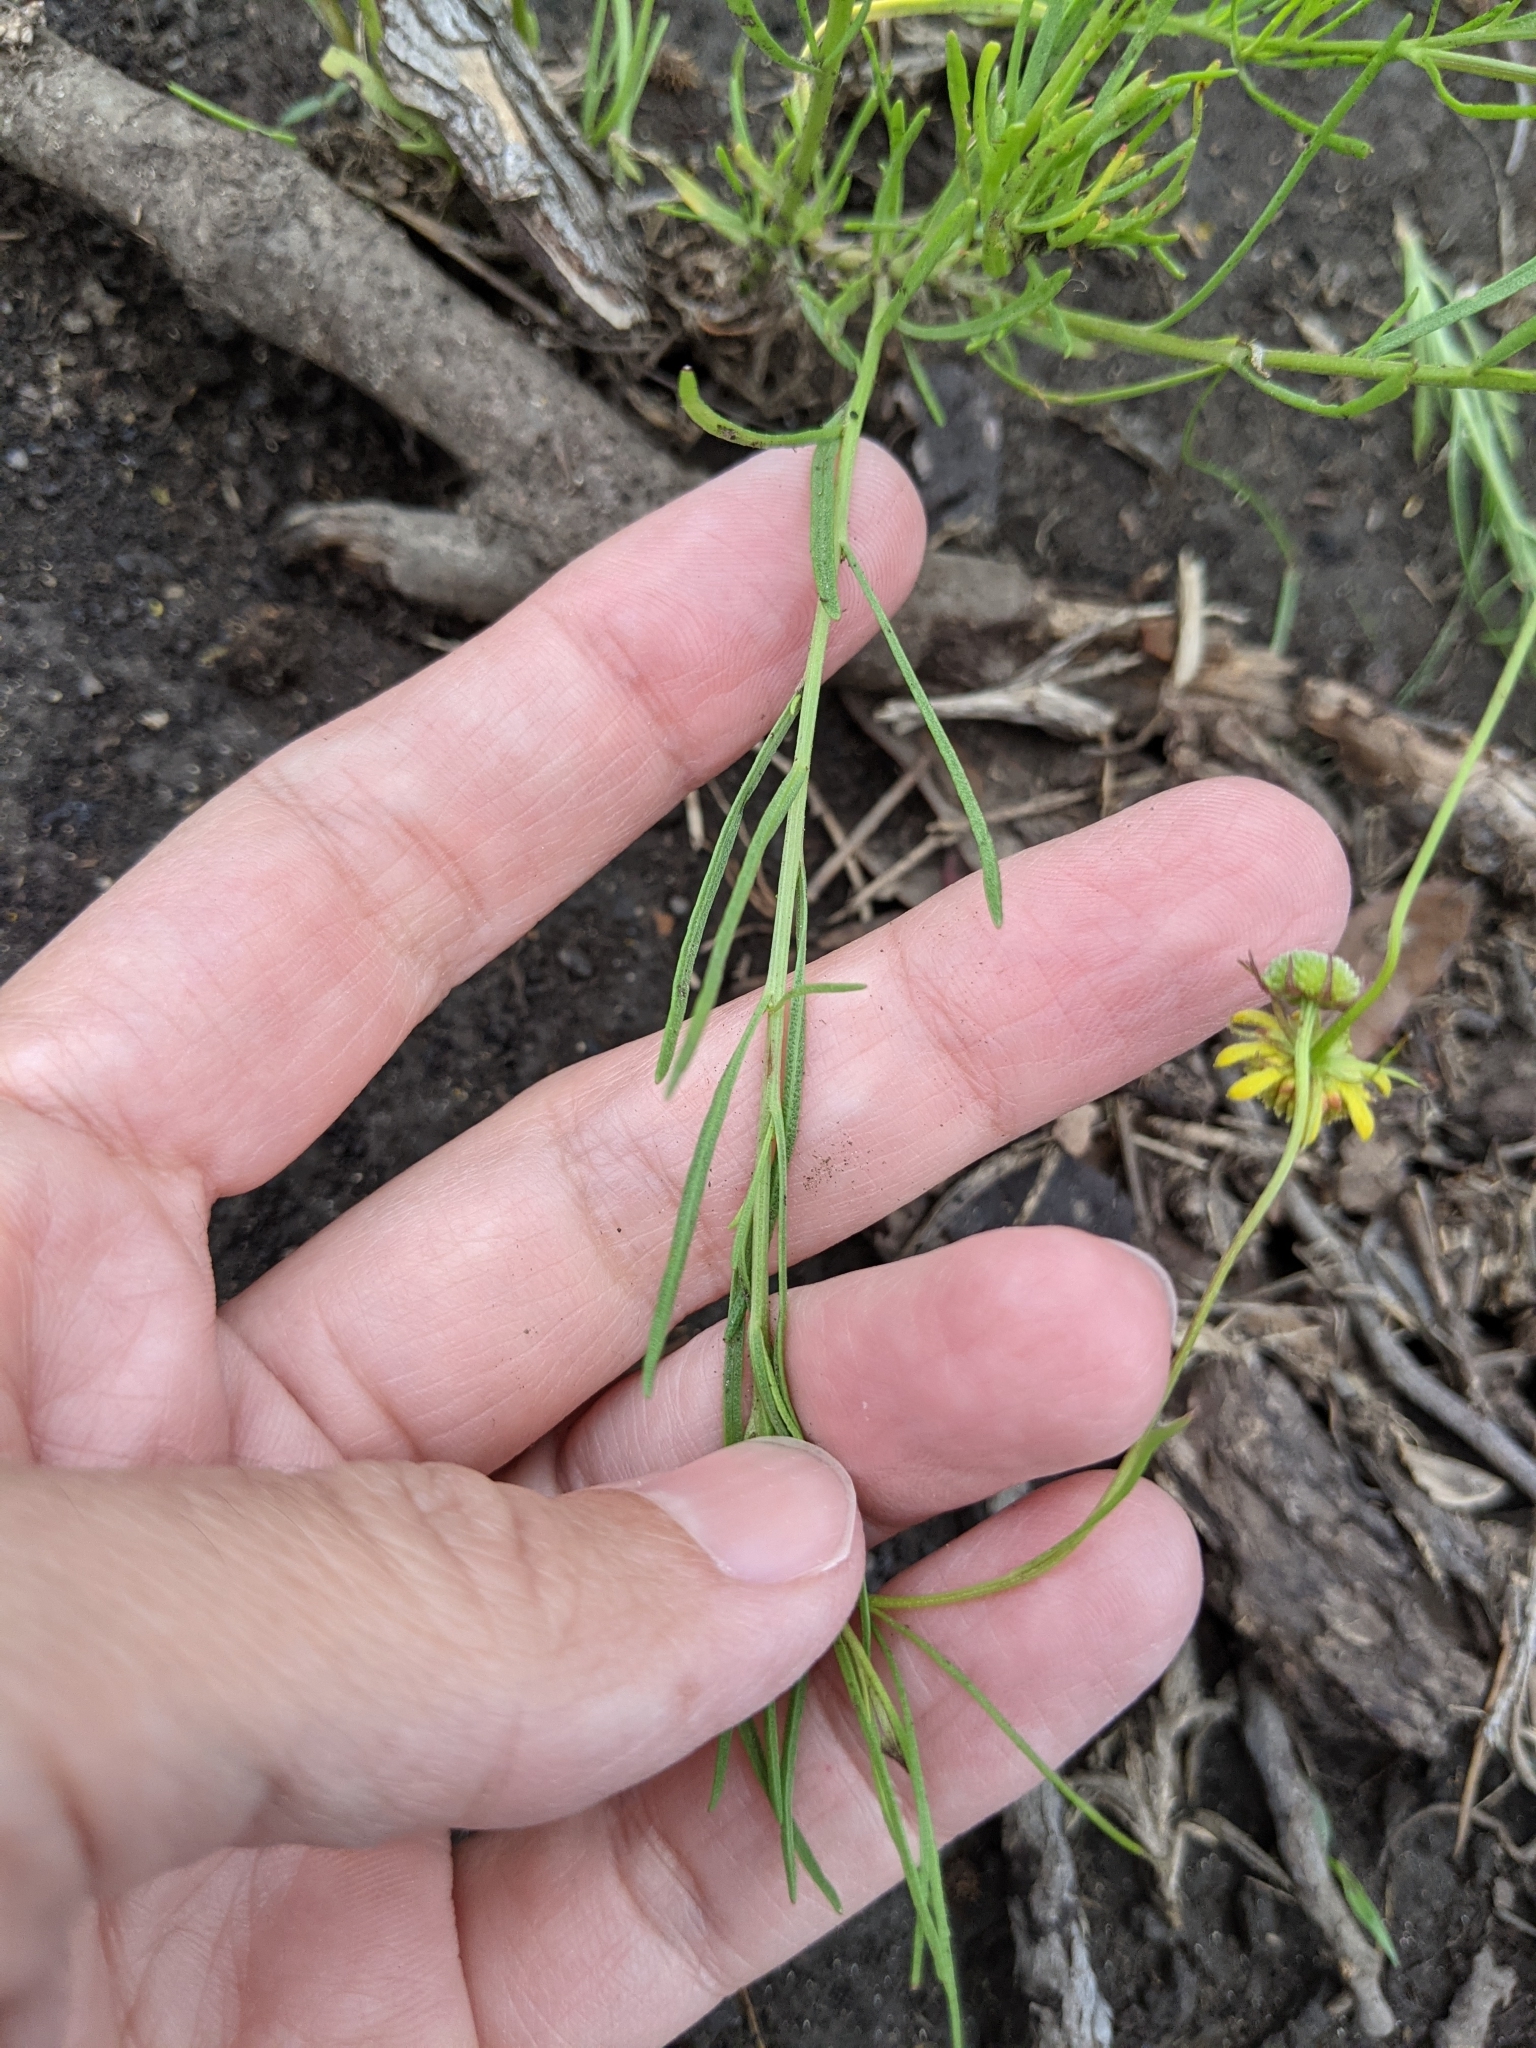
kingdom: Plantae
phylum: Tracheophyta
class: Magnoliopsida
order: Asterales
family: Asteraceae
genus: Helenium
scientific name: Helenium amarum
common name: Bitter sneezeweed
